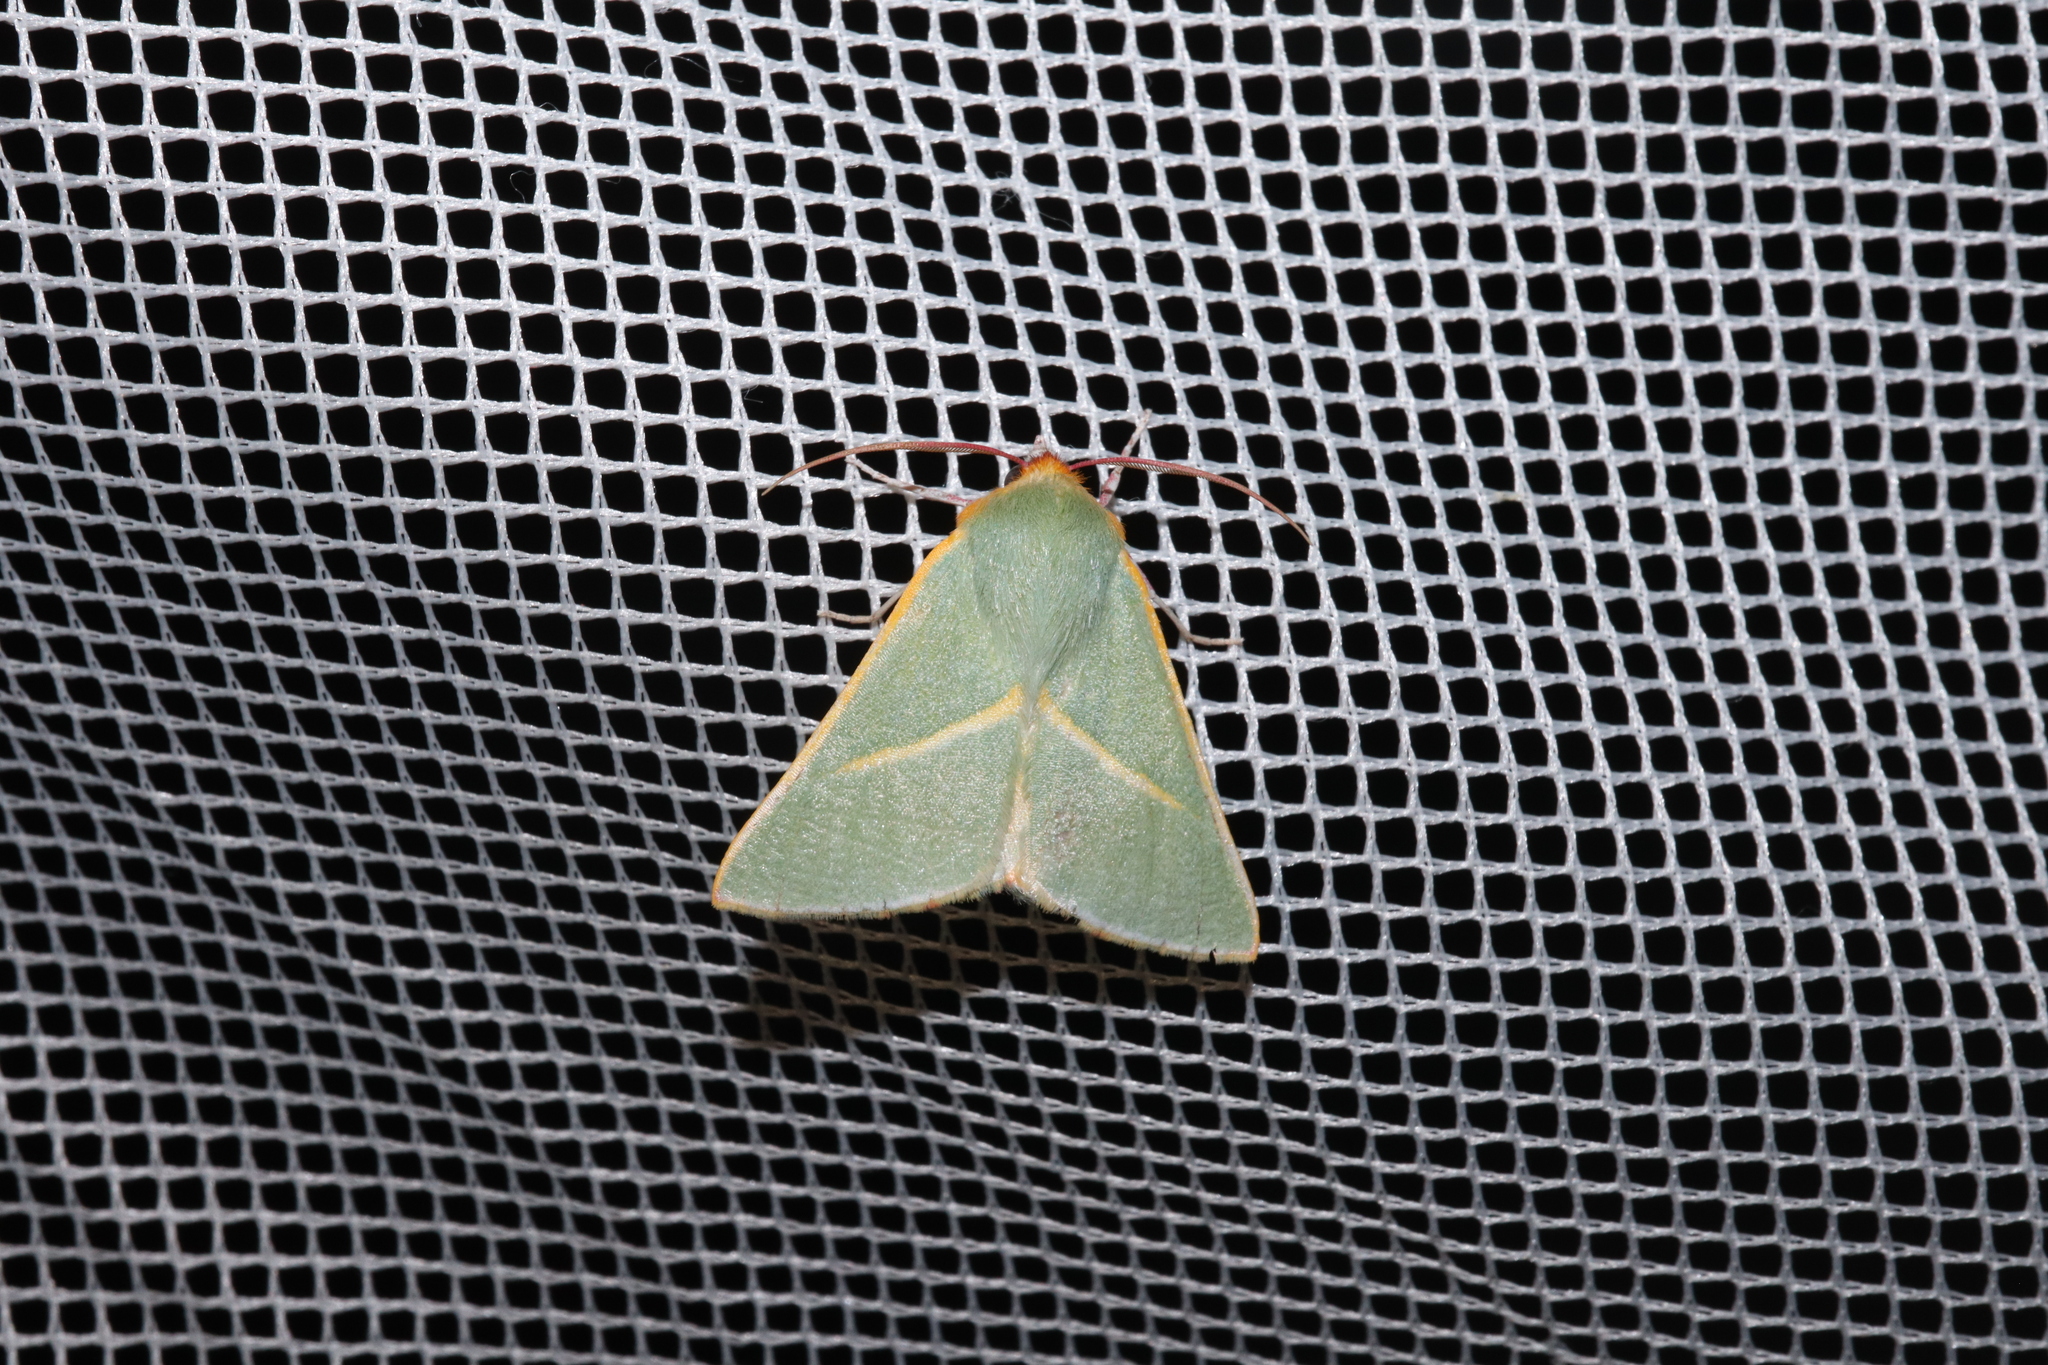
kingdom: Animalia
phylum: Arthropoda
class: Insecta
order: Lepidoptera
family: Geometridae
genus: Oenochroma
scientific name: Oenochroma cerasiplaga
